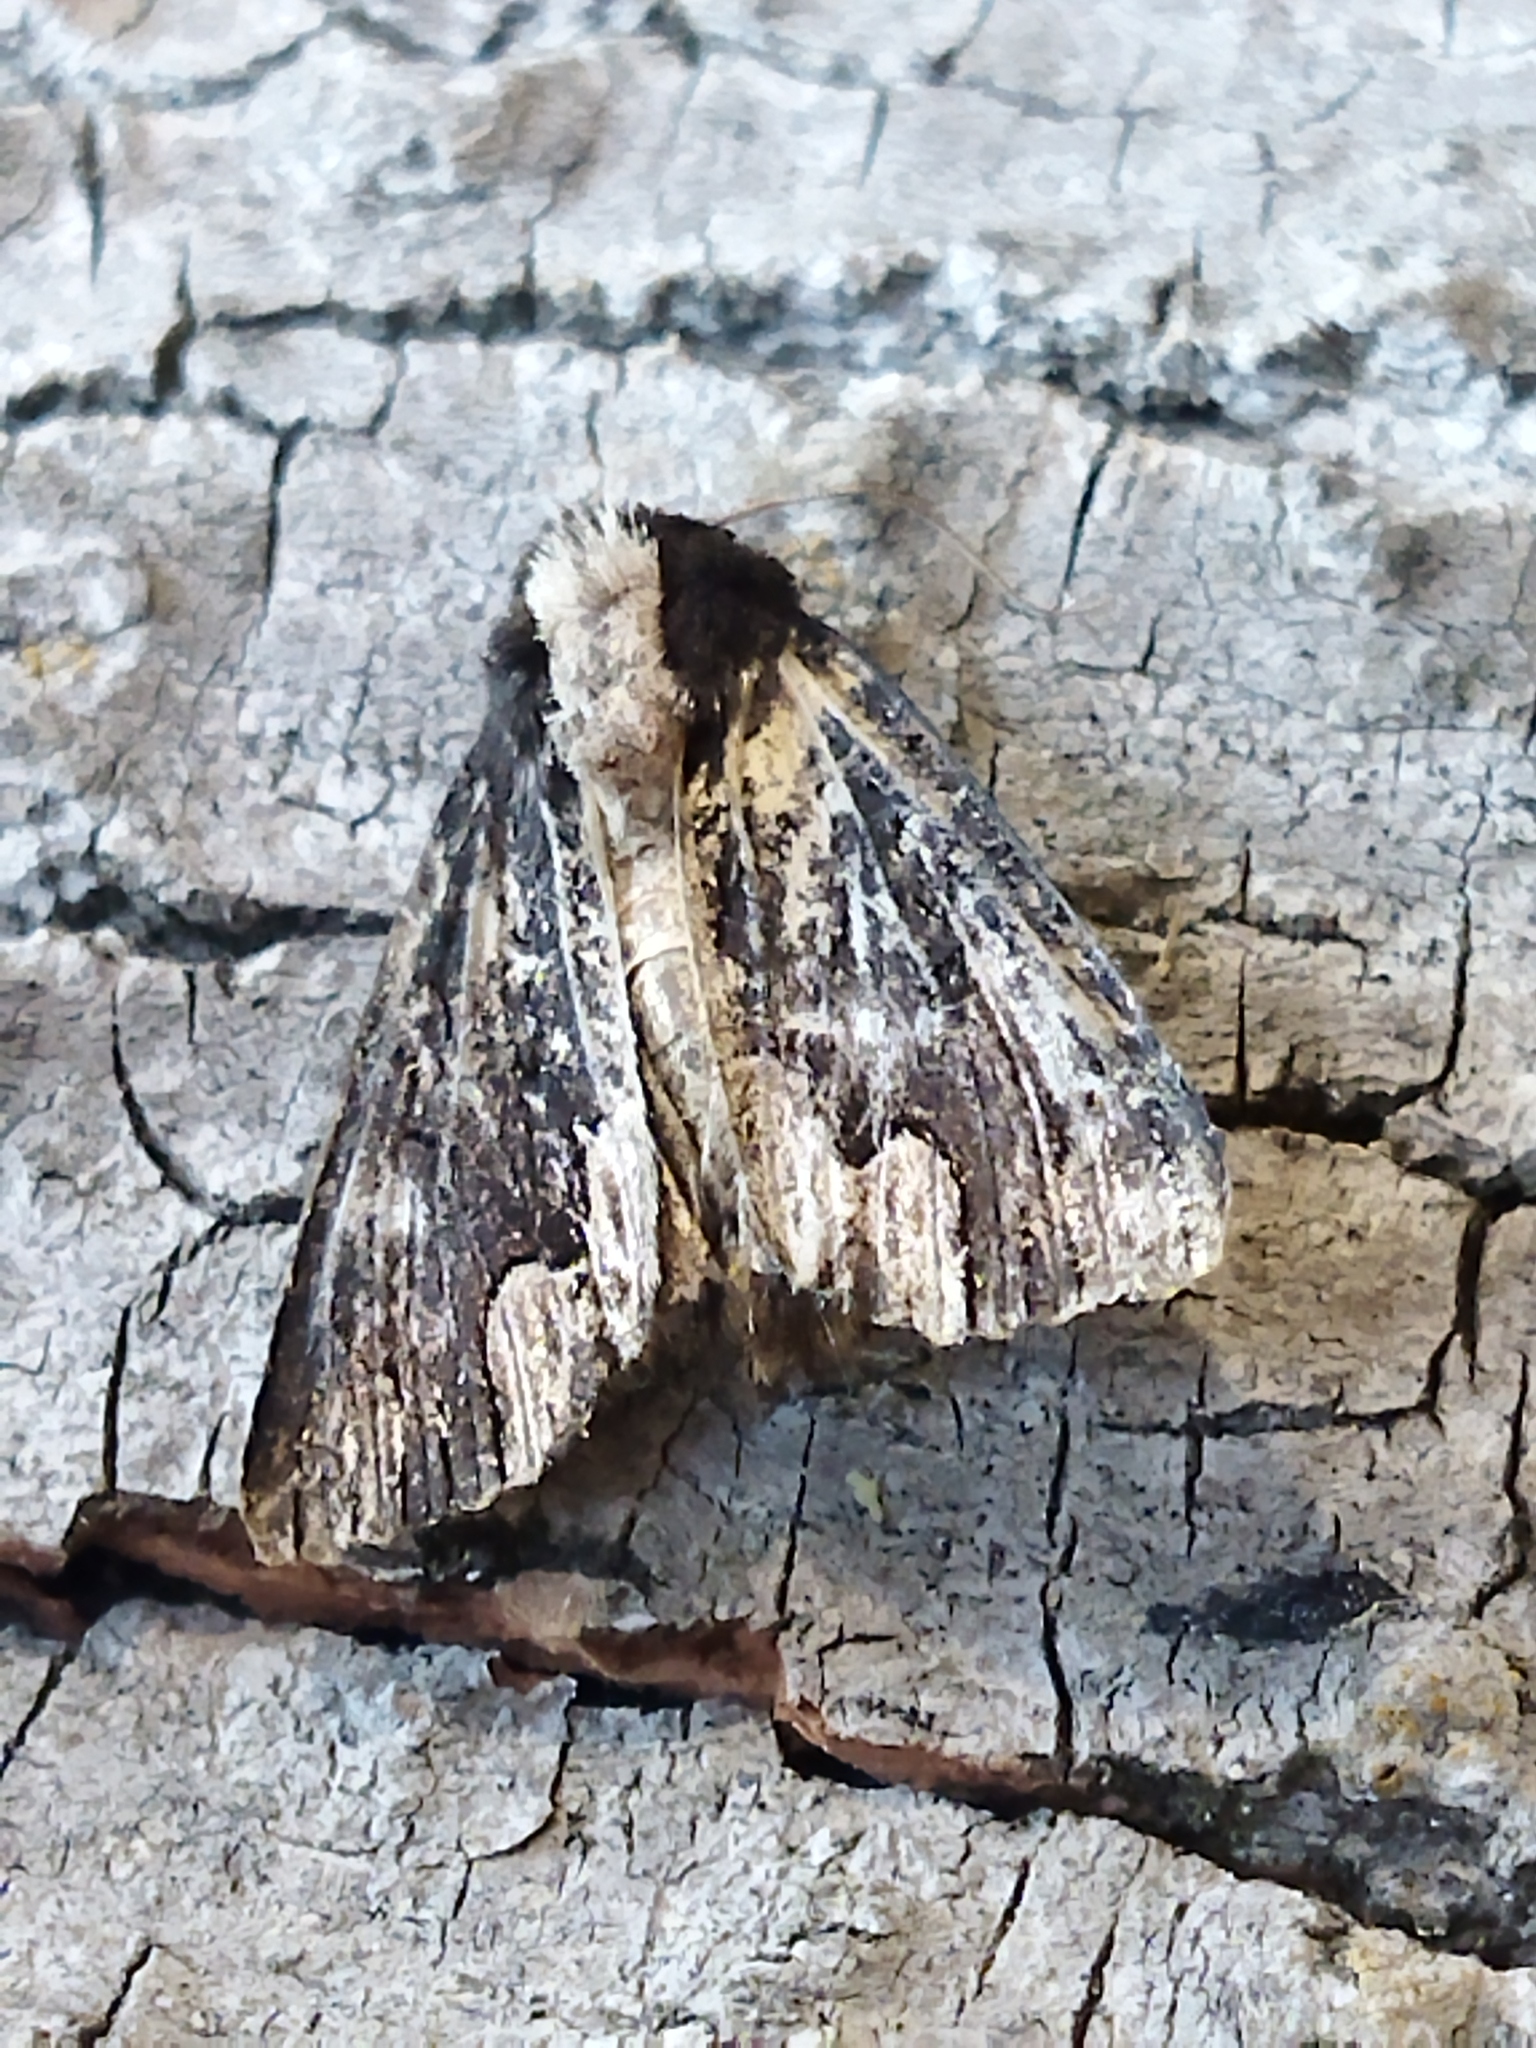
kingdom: Animalia
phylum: Arthropoda
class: Insecta
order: Lepidoptera
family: Noctuidae
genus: Dypterygia
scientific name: Dypterygia scabriuscula
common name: Bird's wing
